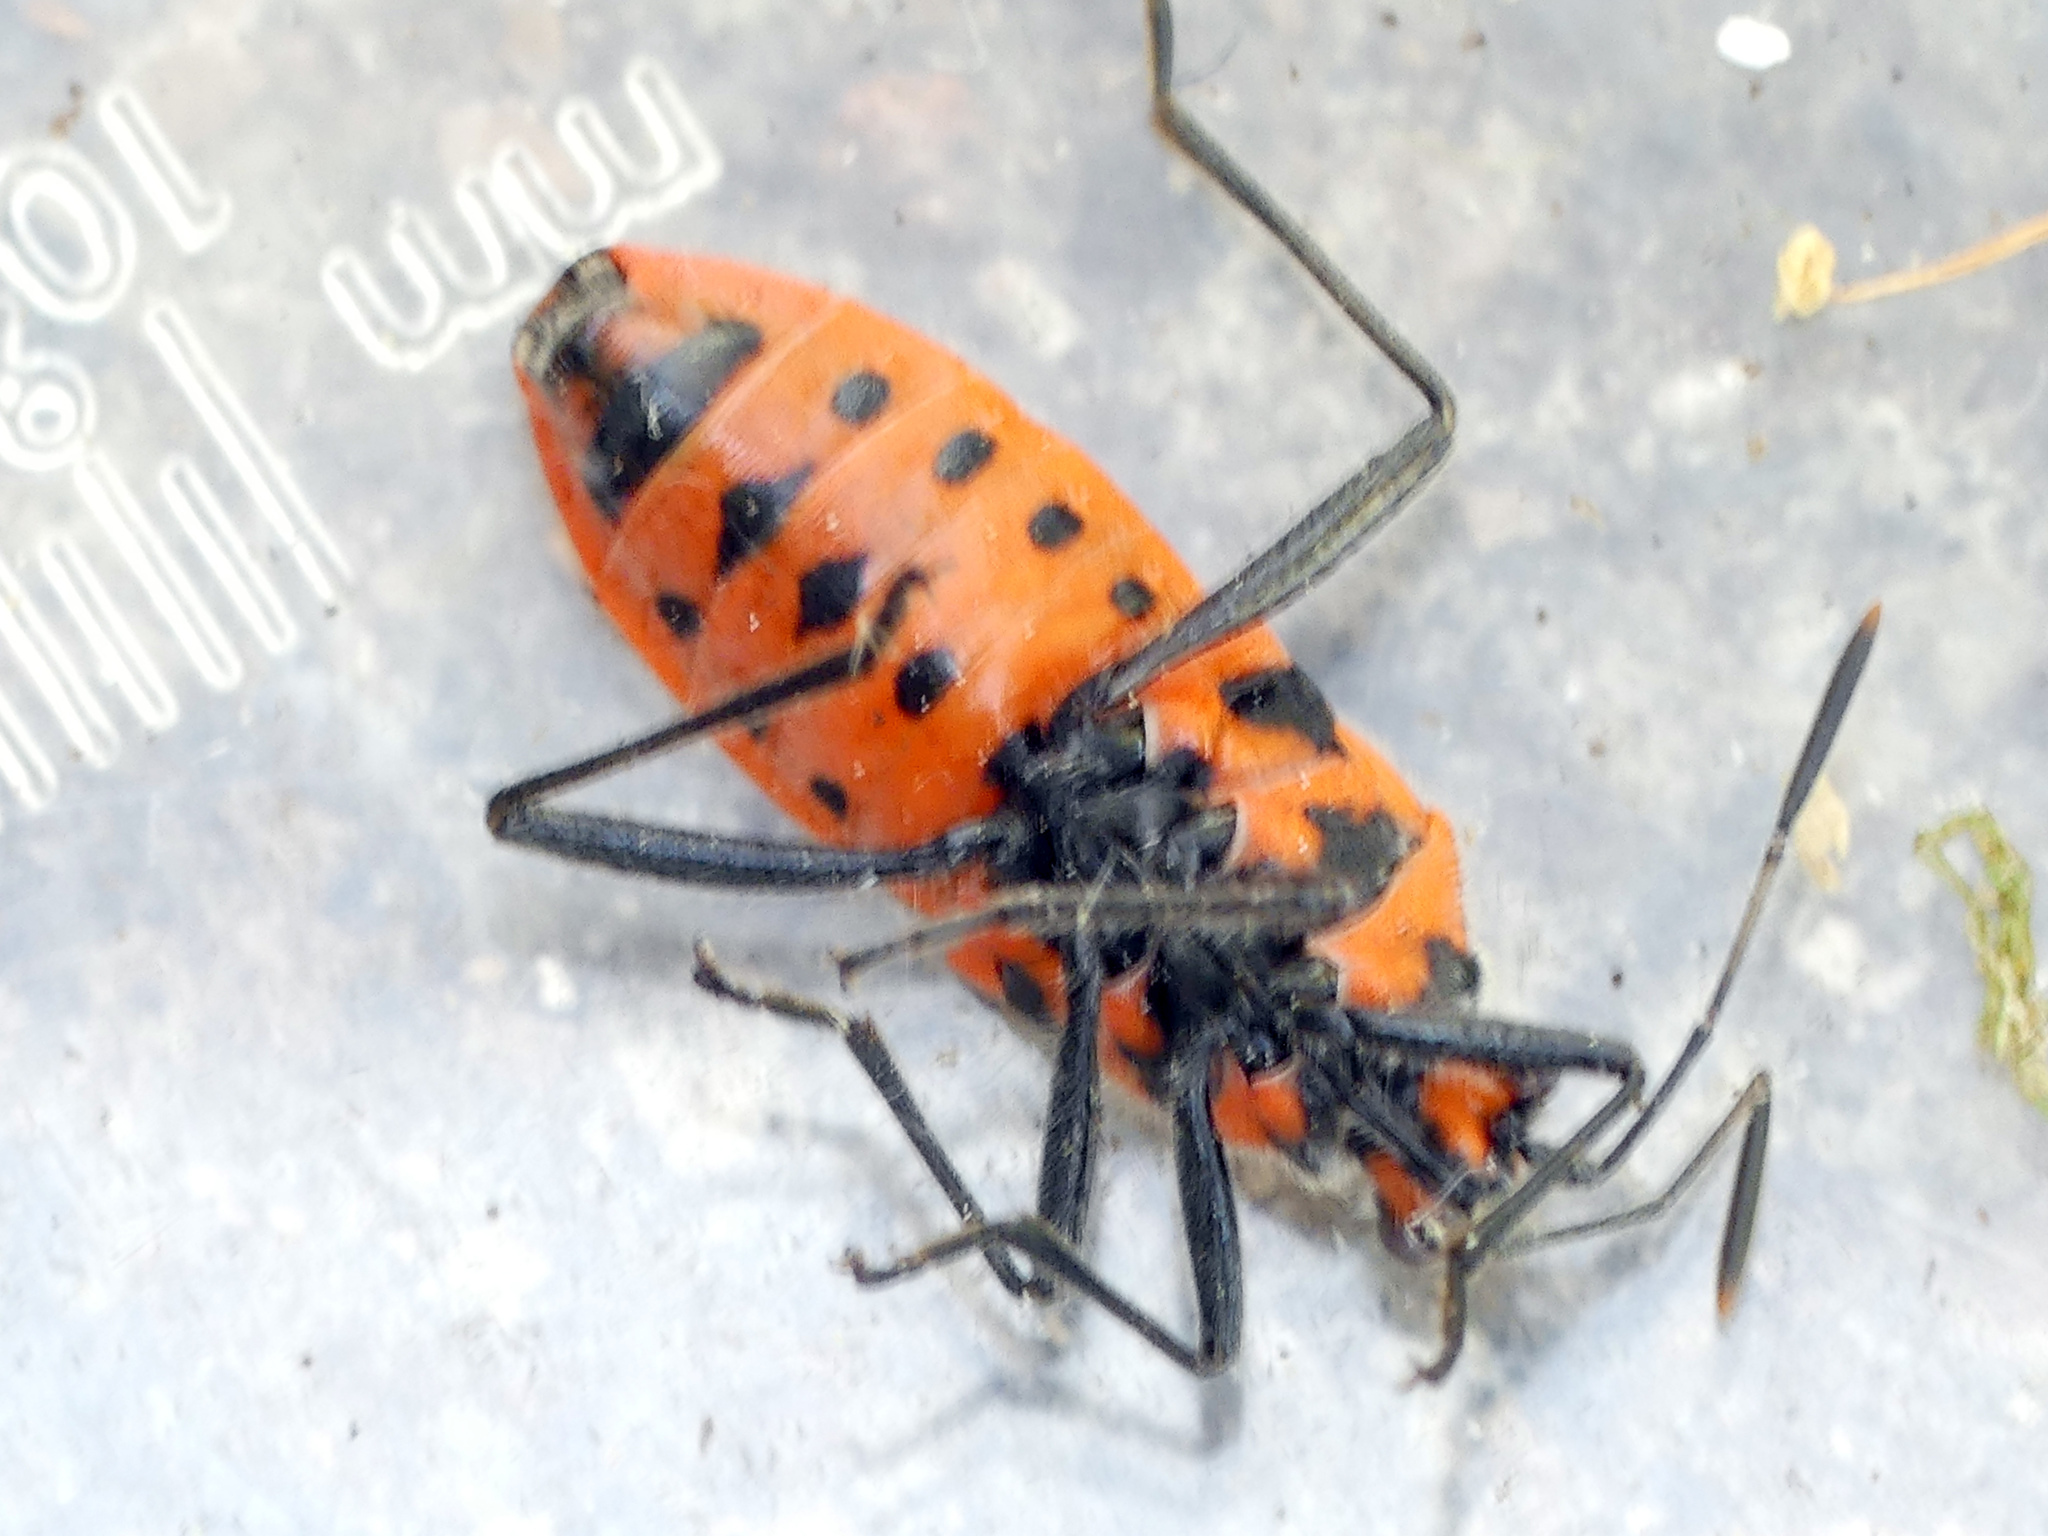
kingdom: Animalia
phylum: Arthropoda
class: Insecta
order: Hemiptera
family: Rhopalidae
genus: Corizus
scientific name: Corizus hyoscyami
